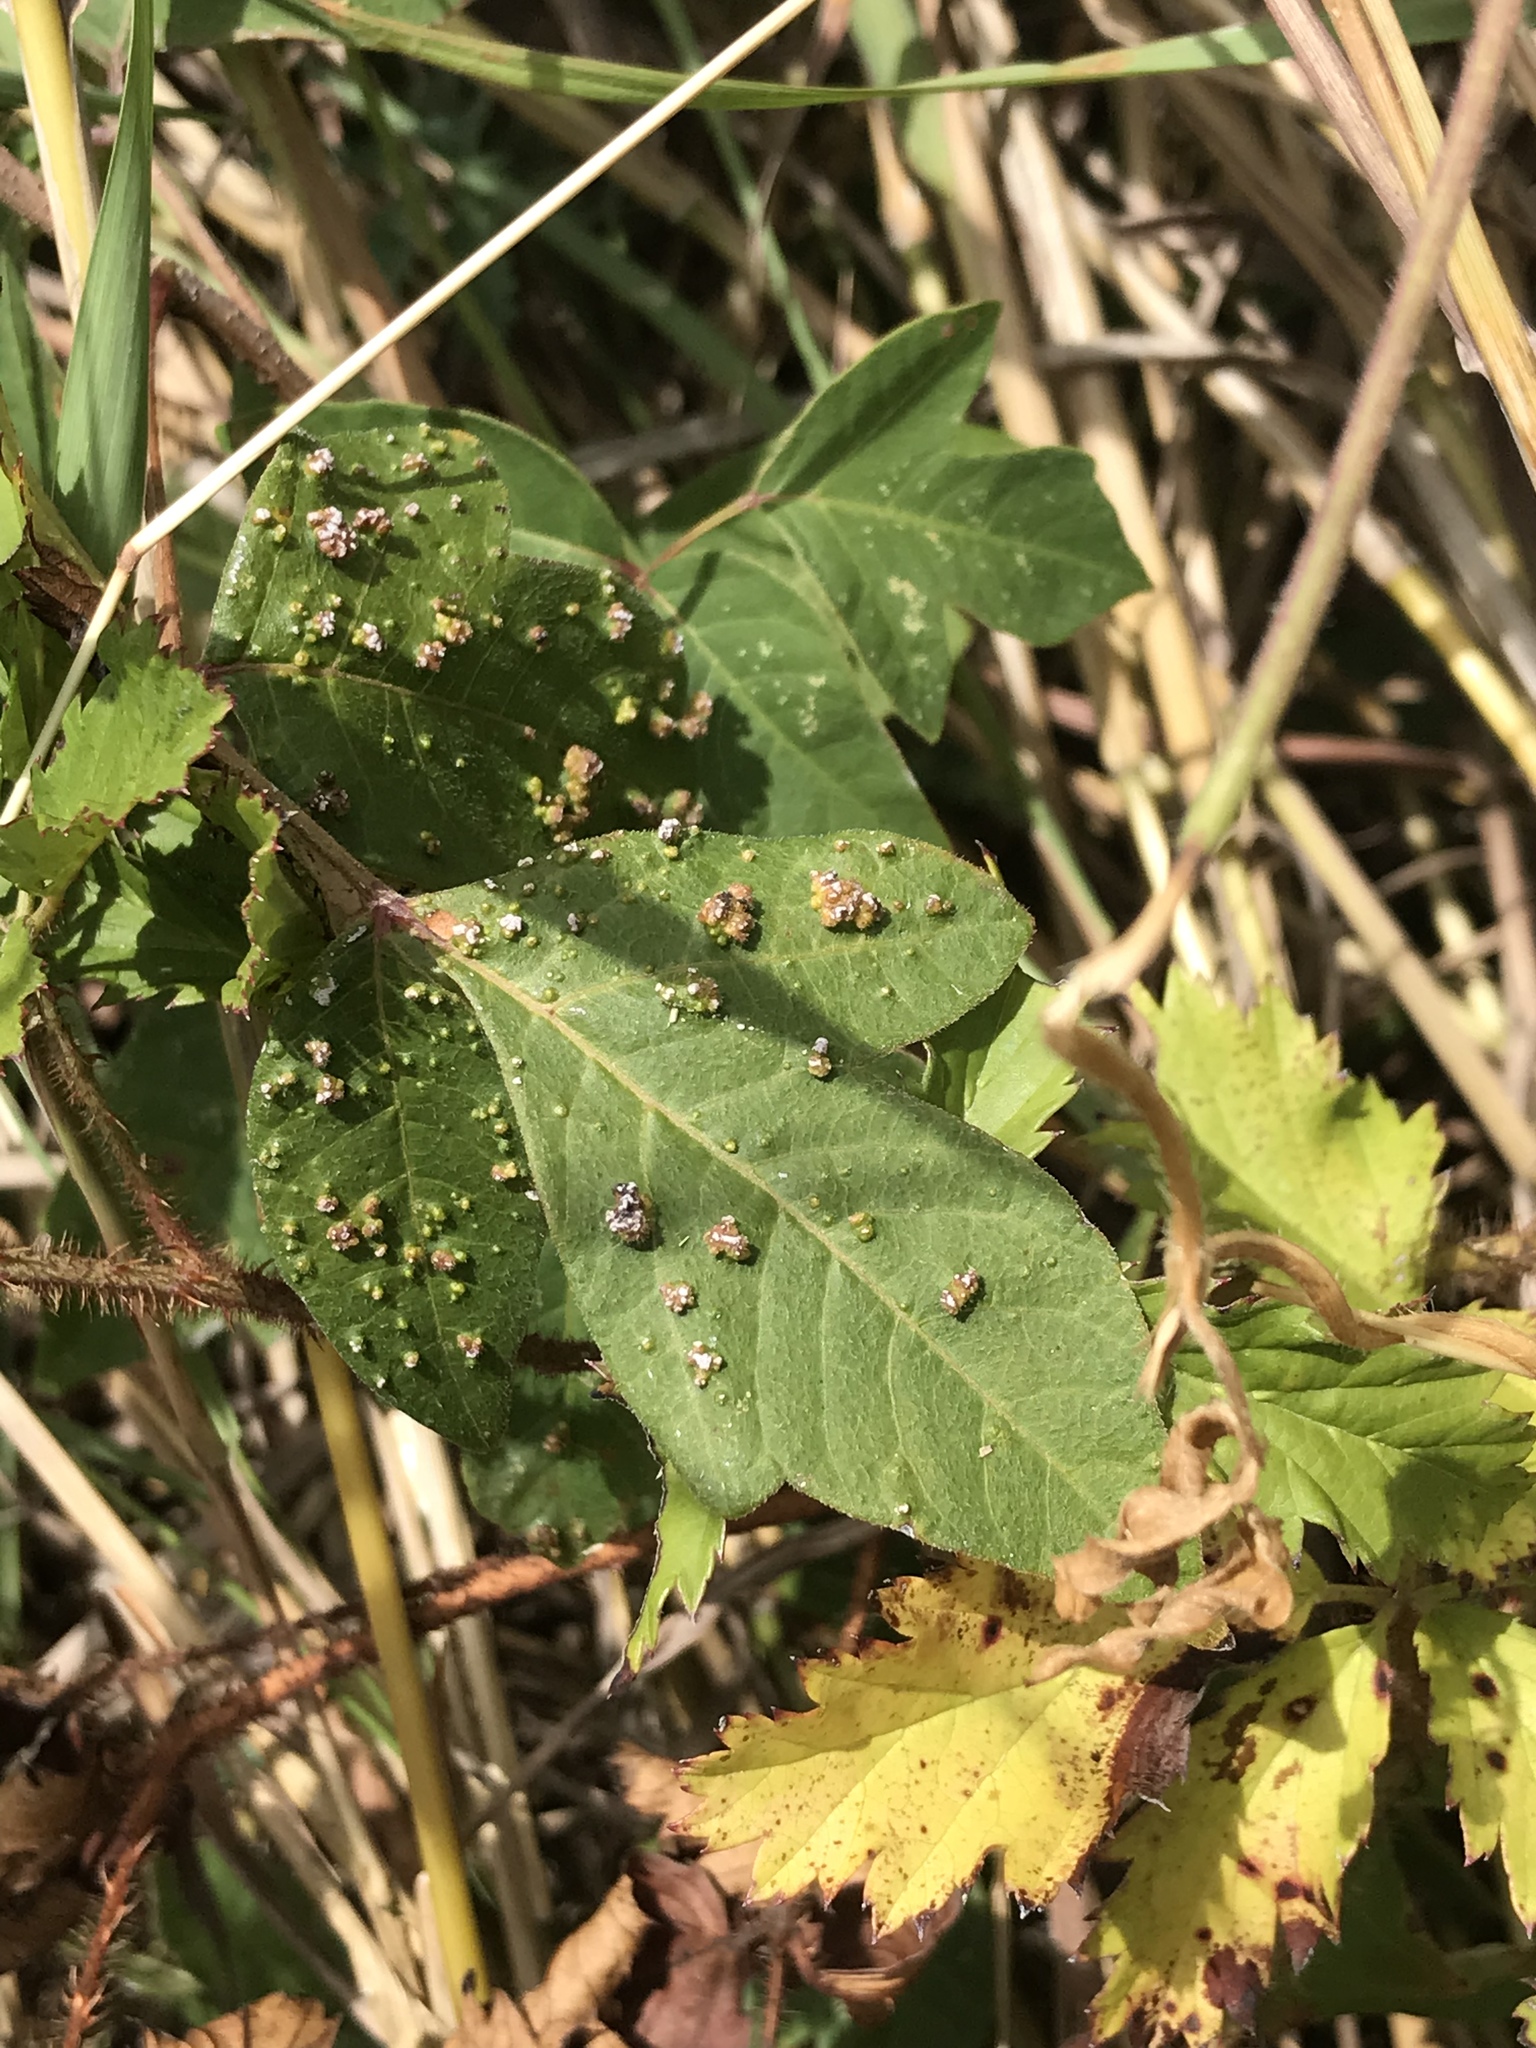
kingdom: Animalia
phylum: Arthropoda
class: Arachnida
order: Trombidiformes
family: Eriophyidae
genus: Aculops
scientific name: Aculops
